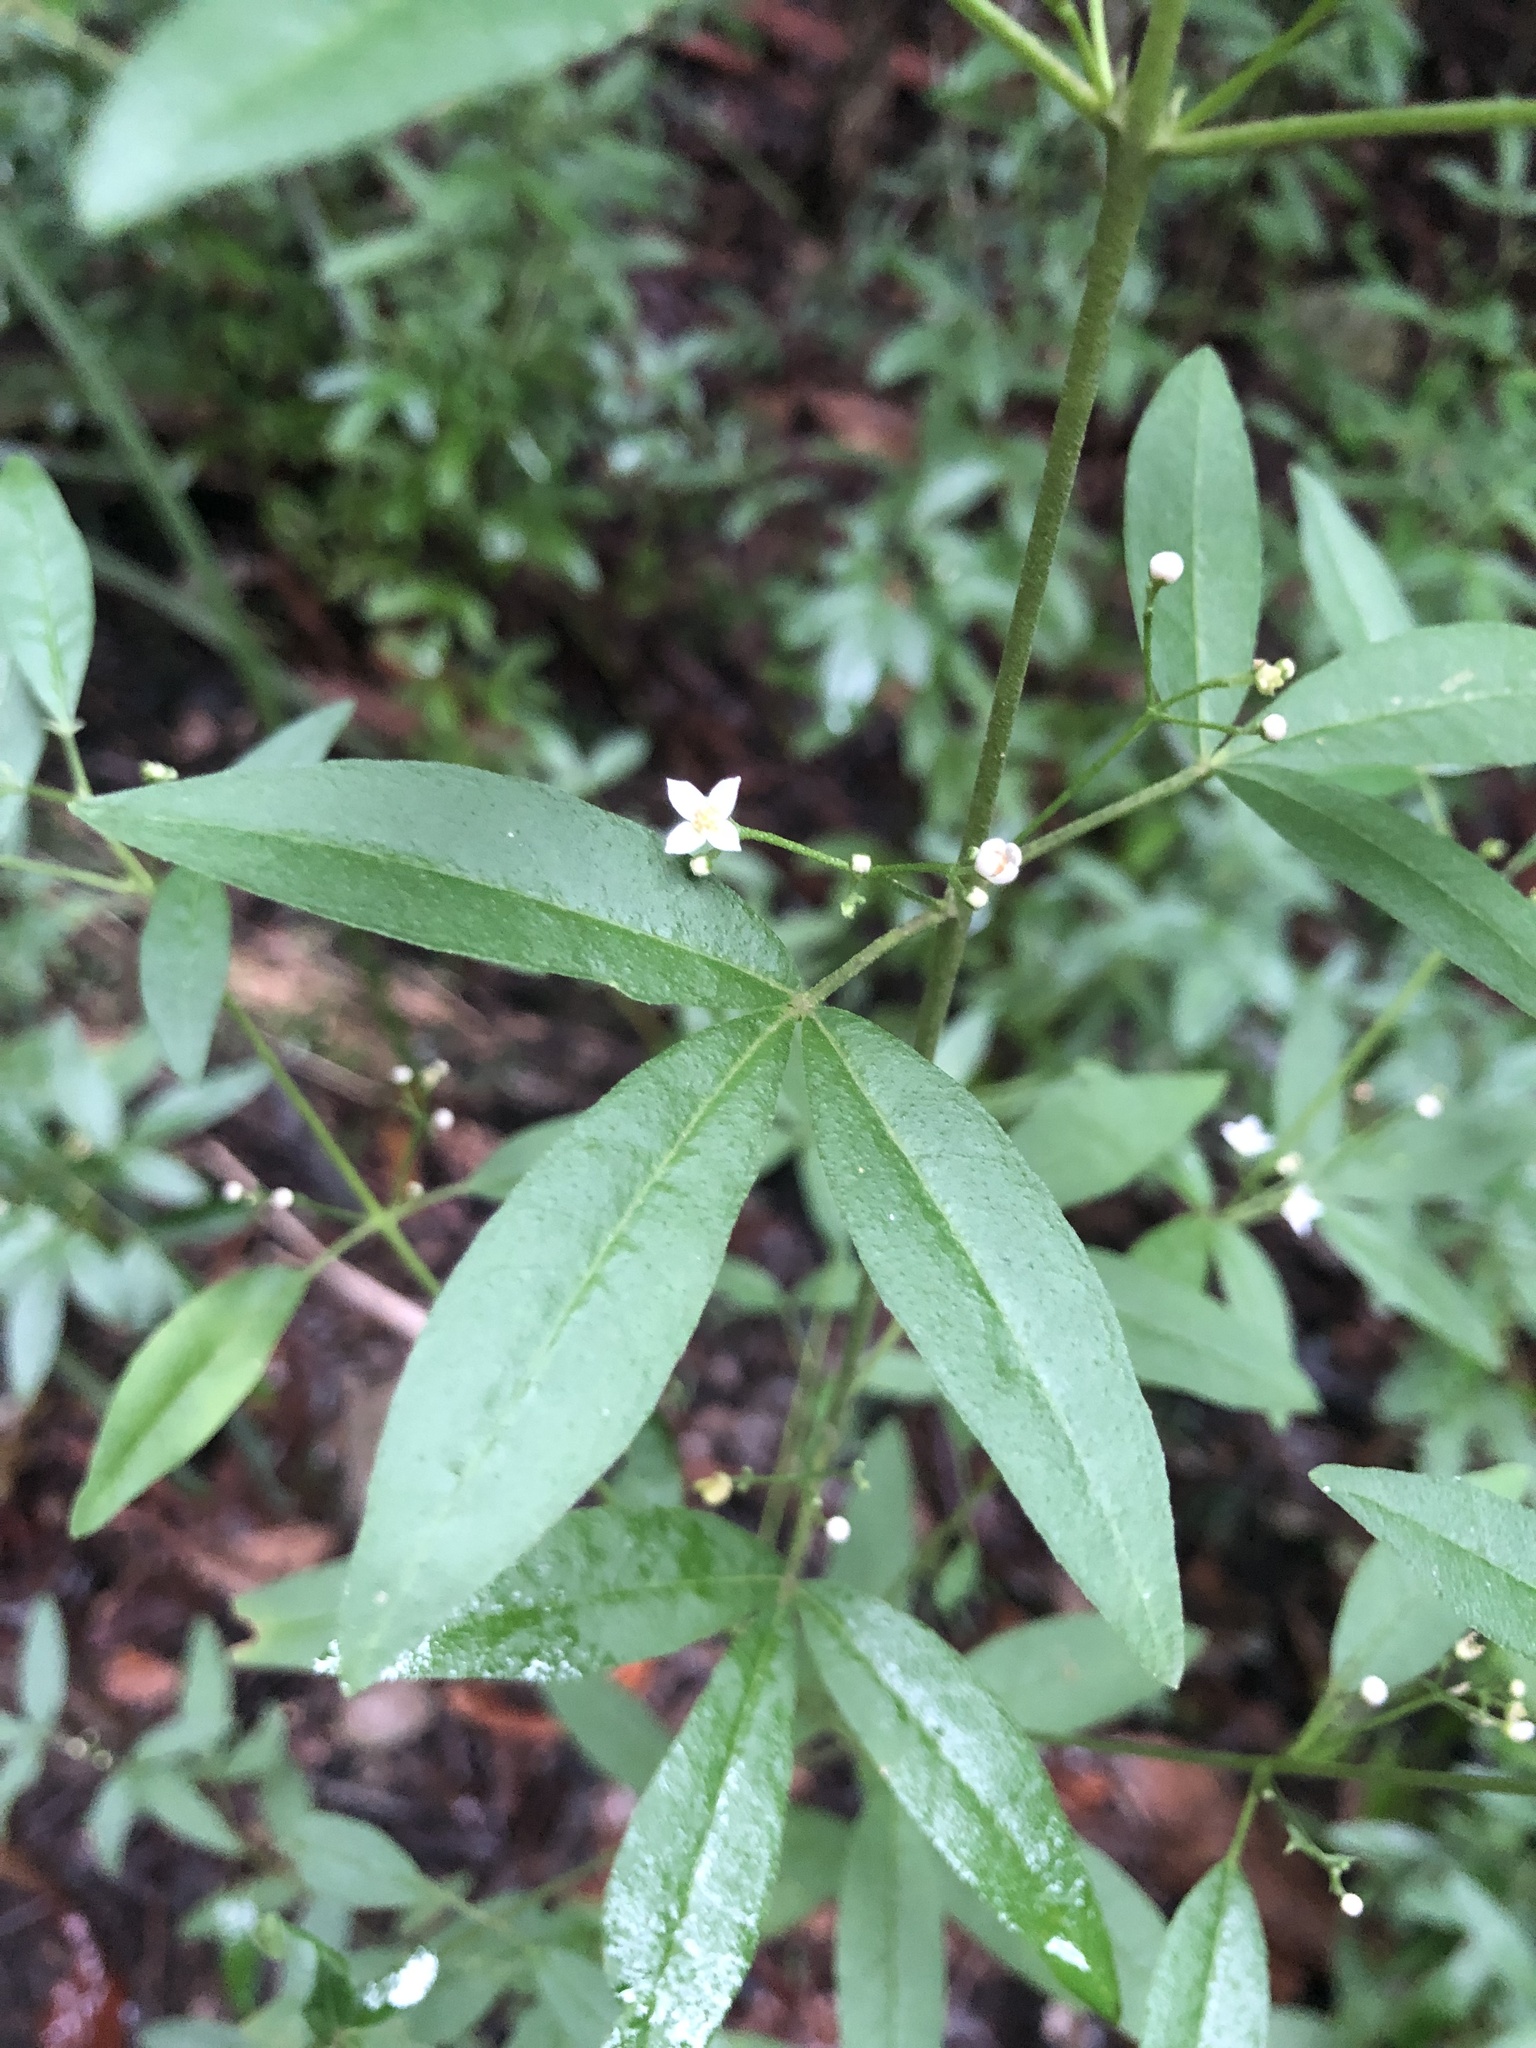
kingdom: Plantae
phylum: Tracheophyta
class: Magnoliopsida
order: Sapindales
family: Rutaceae
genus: Zieria
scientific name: Zieria smithii
